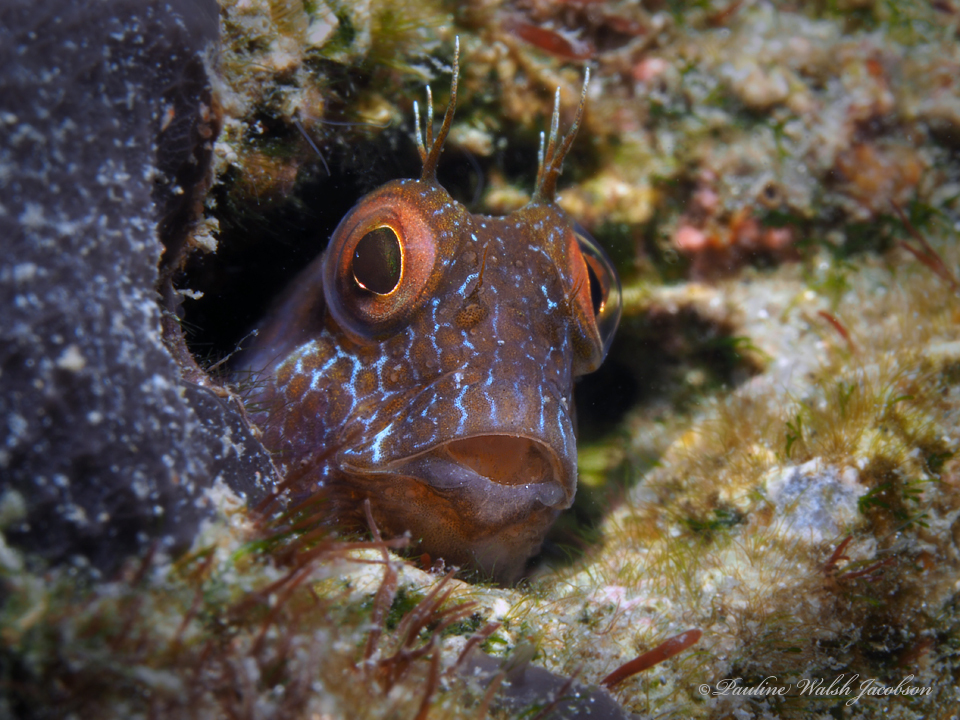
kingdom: Animalia
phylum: Chordata
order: Perciformes
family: Blenniidae
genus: Parablennius
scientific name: Parablennius marmoreus
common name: Seaweed blenny
